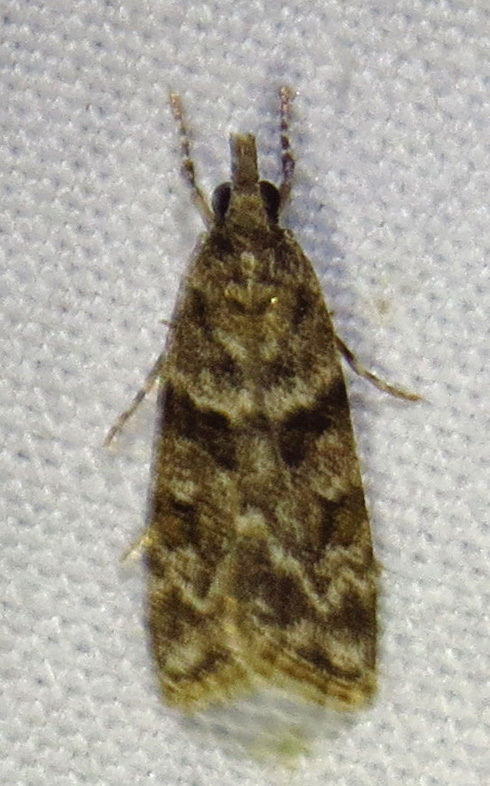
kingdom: Animalia
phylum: Arthropoda
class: Insecta
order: Lepidoptera
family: Crambidae
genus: Scoparia
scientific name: Scoparia biplagialis
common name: Double-striped scoparia moth
